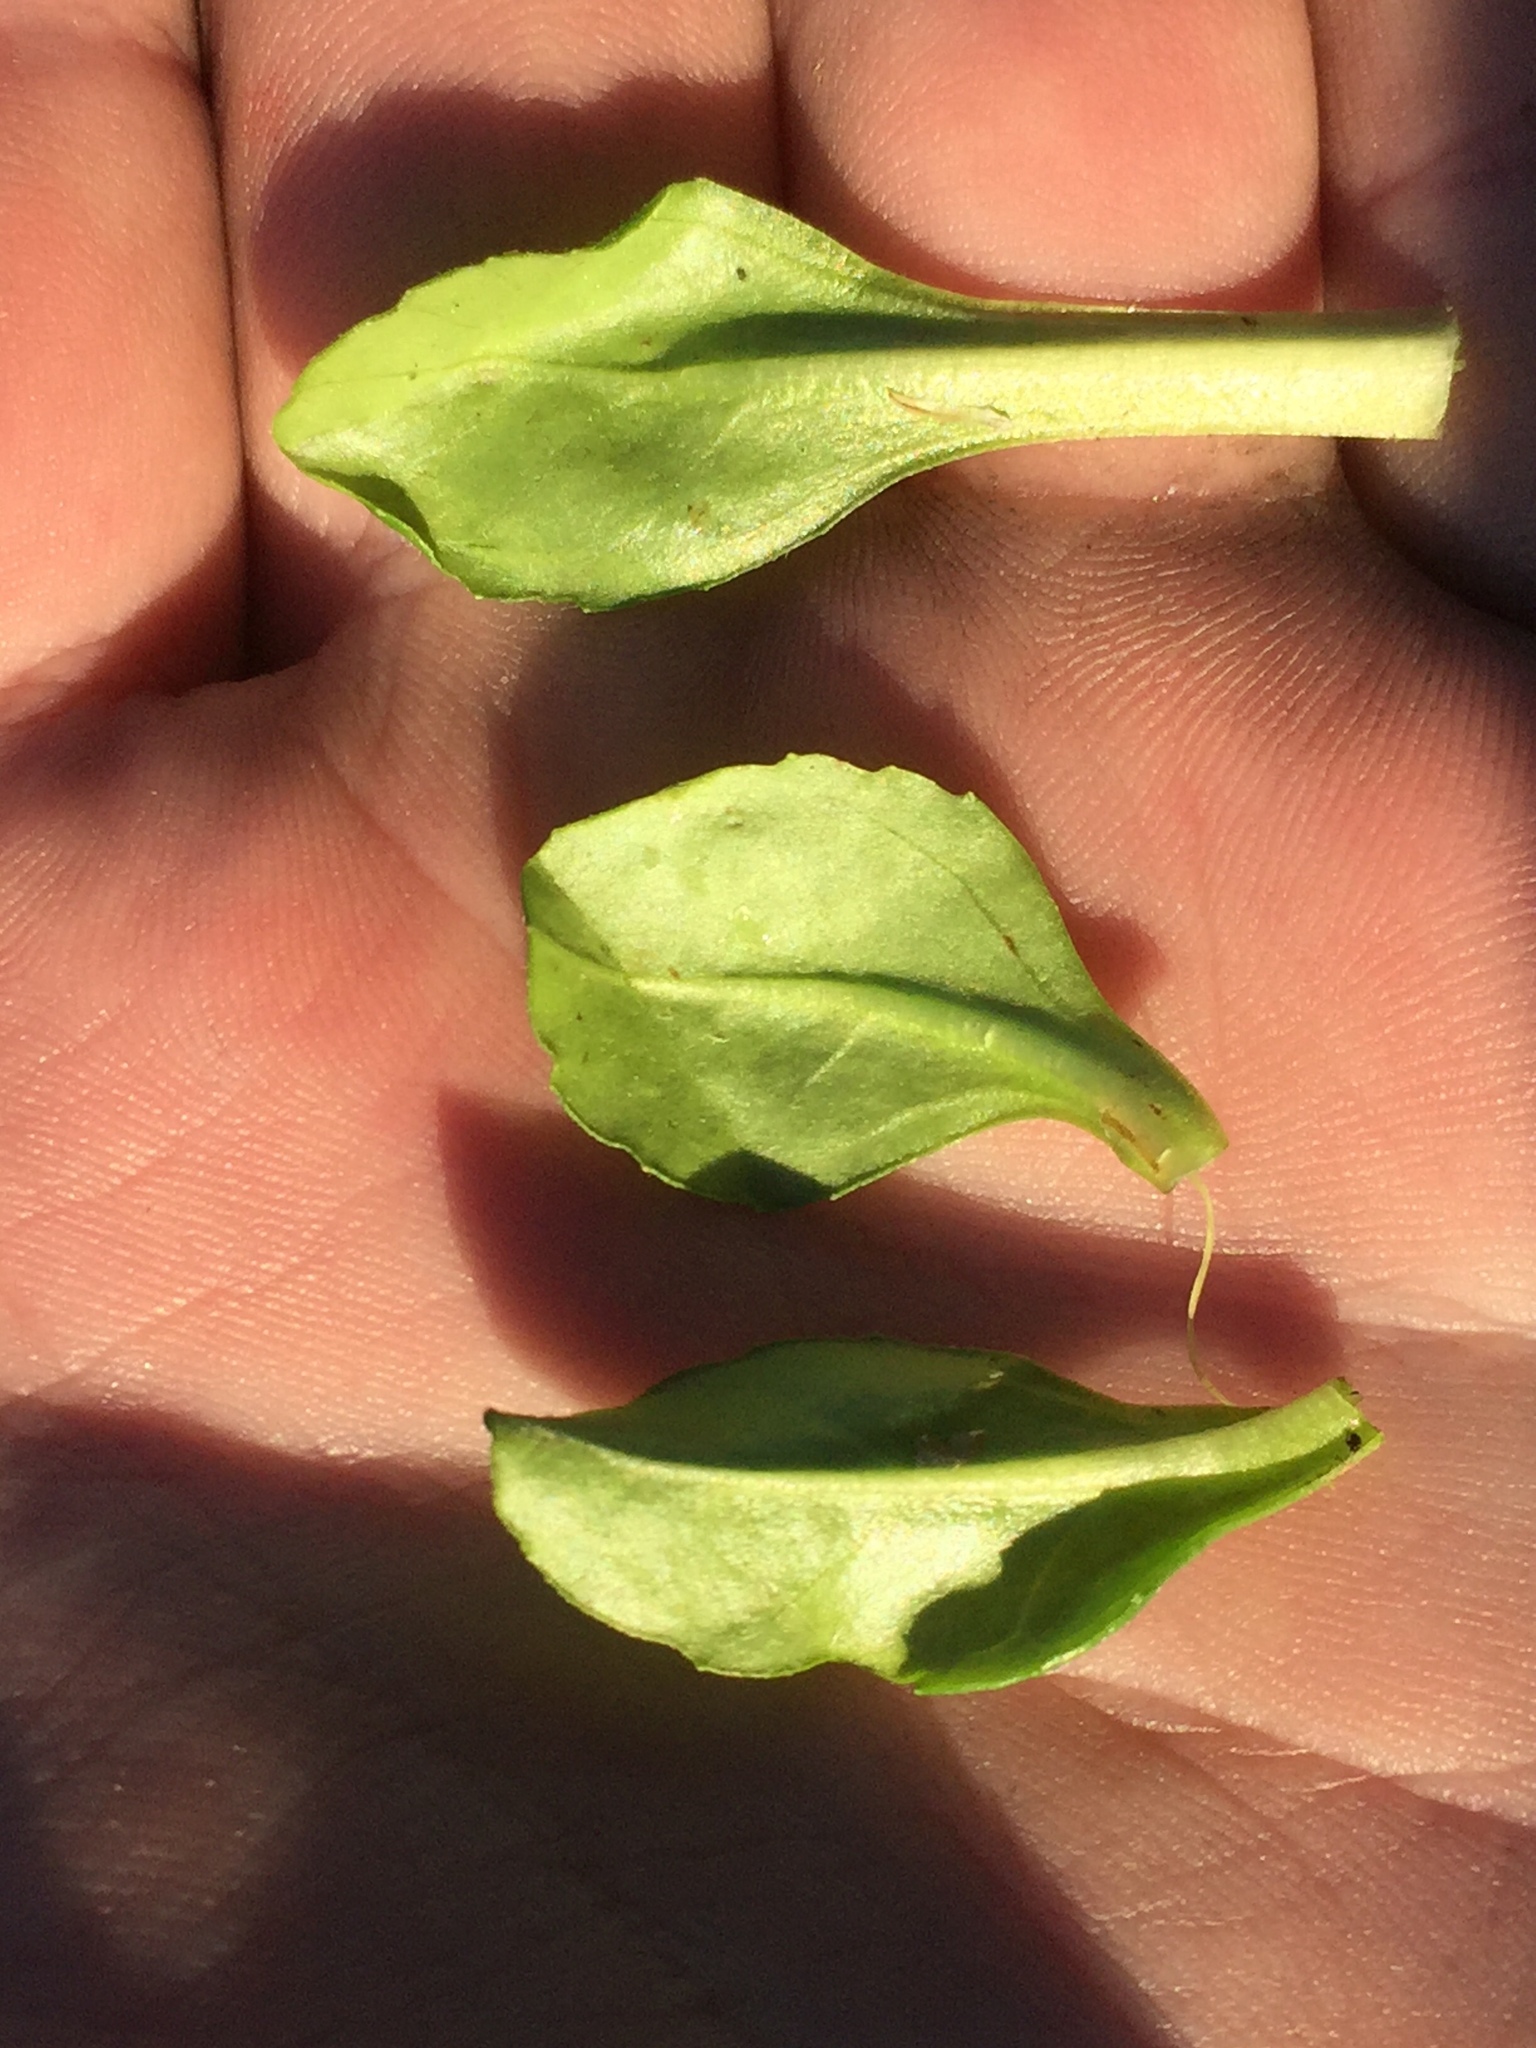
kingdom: Plantae
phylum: Tracheophyta
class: Magnoliopsida
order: Asterales
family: Asteraceae
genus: Bellis
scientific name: Bellis perennis
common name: Lawndaisy
